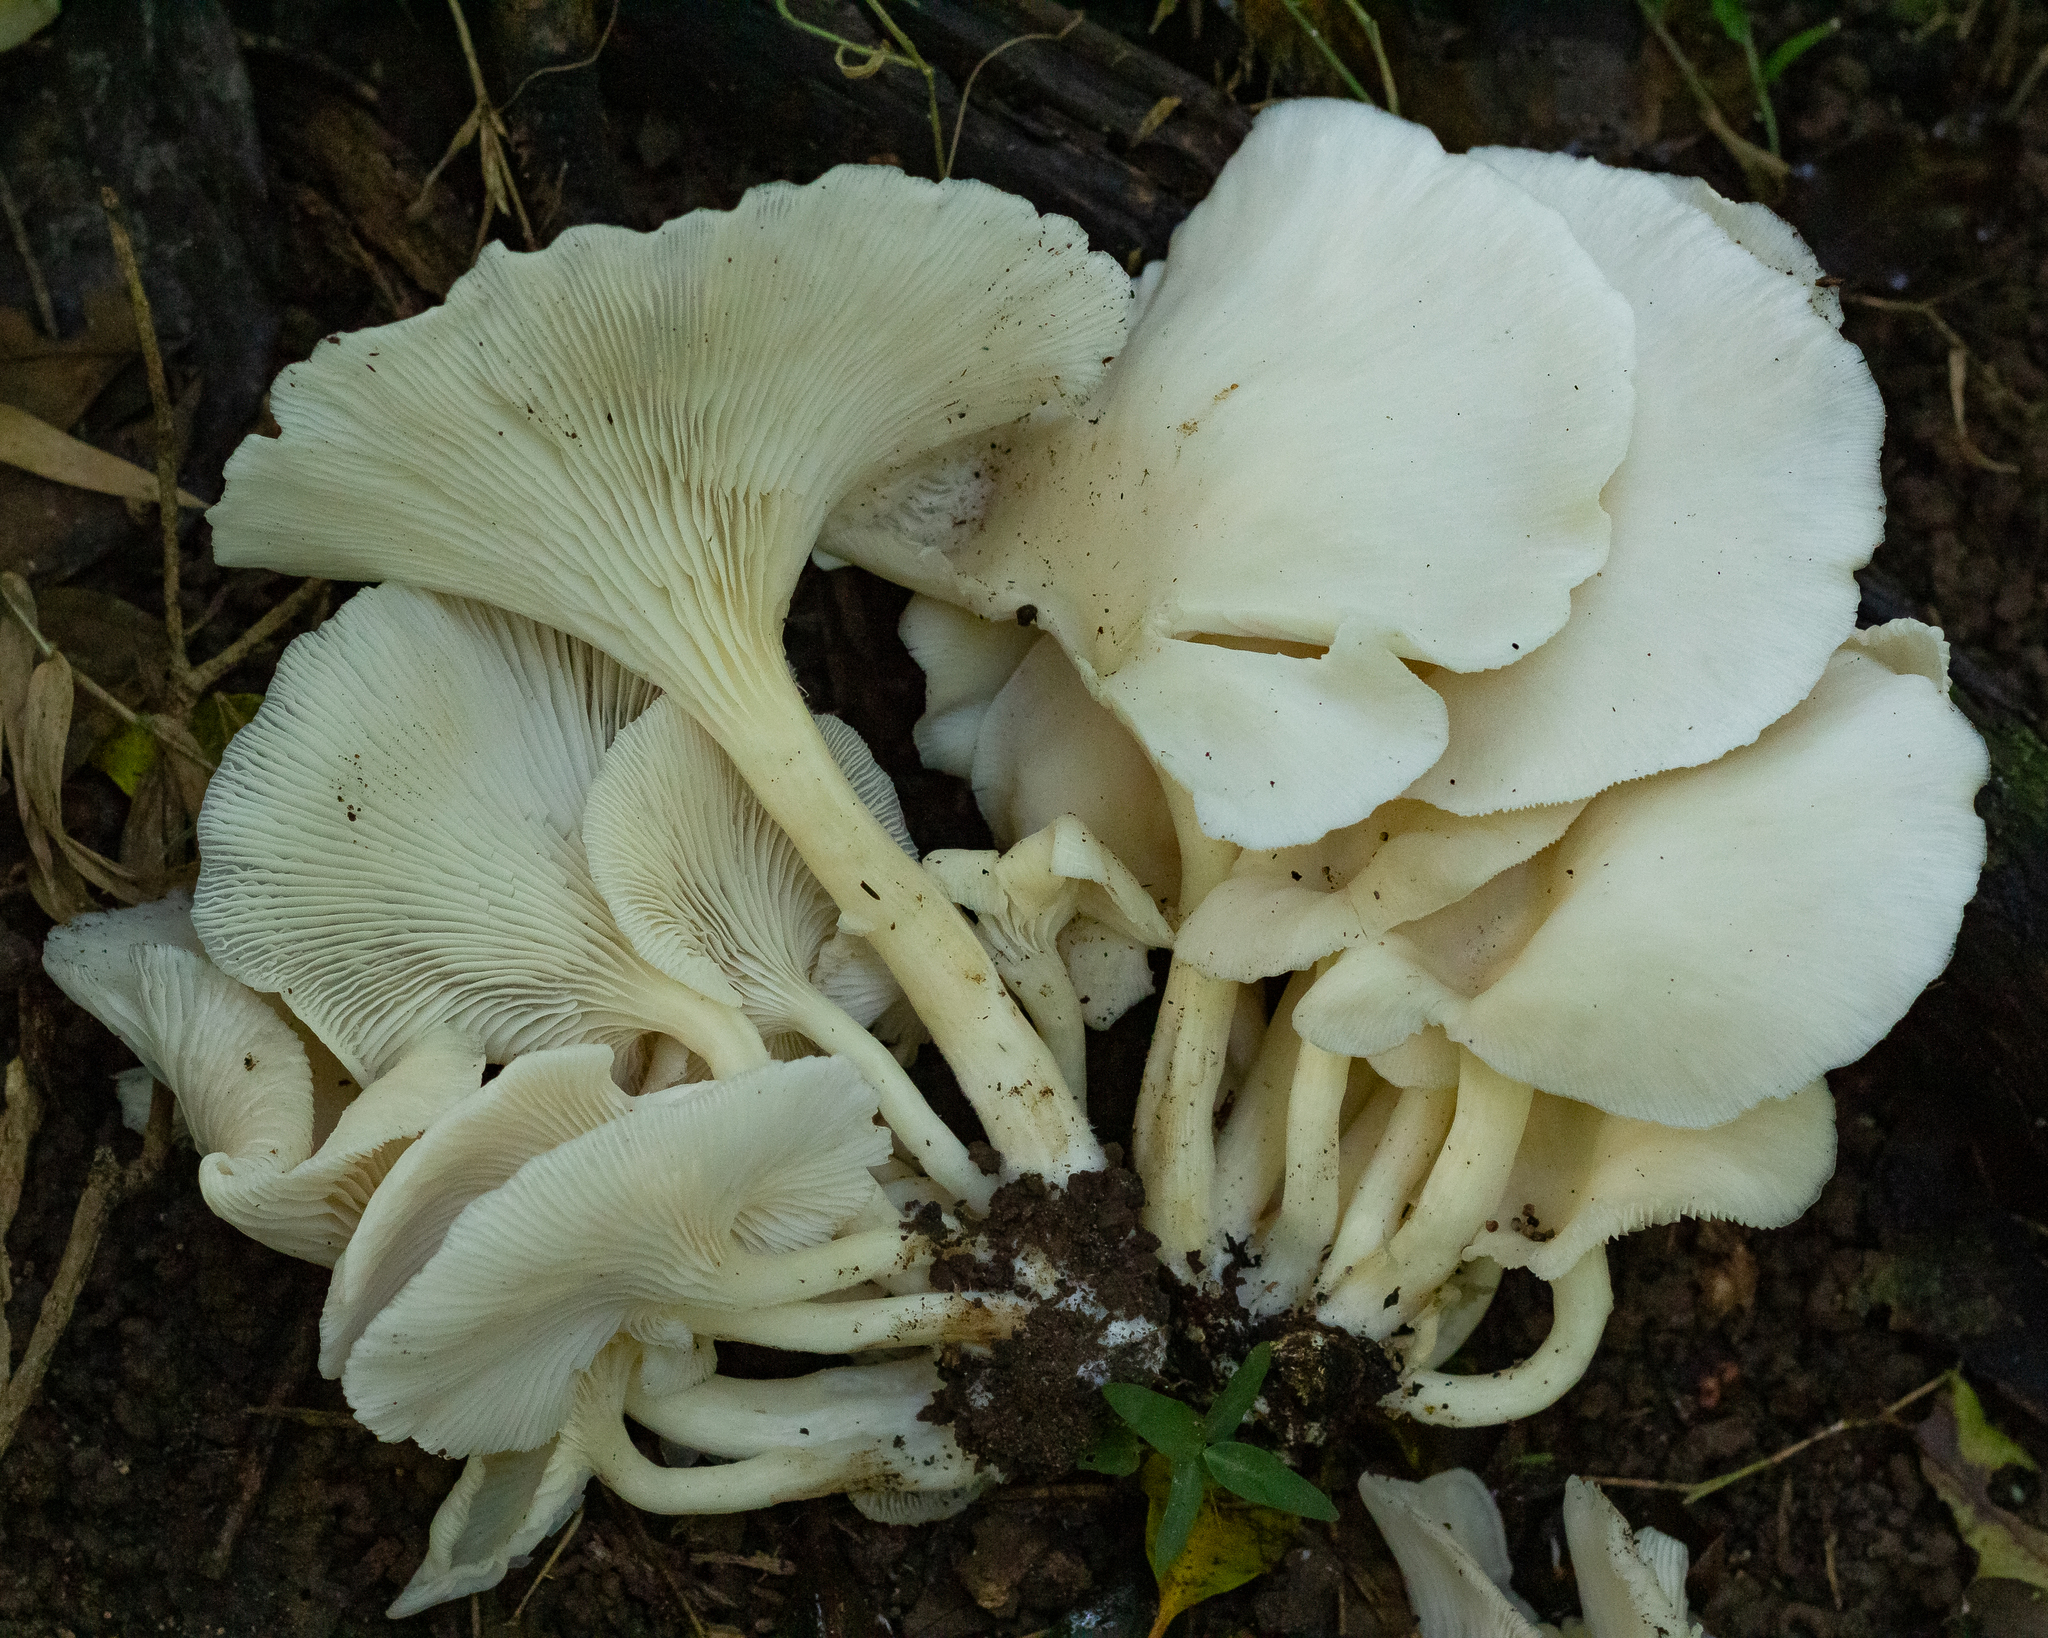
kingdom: Fungi
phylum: Basidiomycota
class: Agaricomycetes
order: Agaricales
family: Pleurotaceae
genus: Pleurotus
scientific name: Pleurotus albidus
